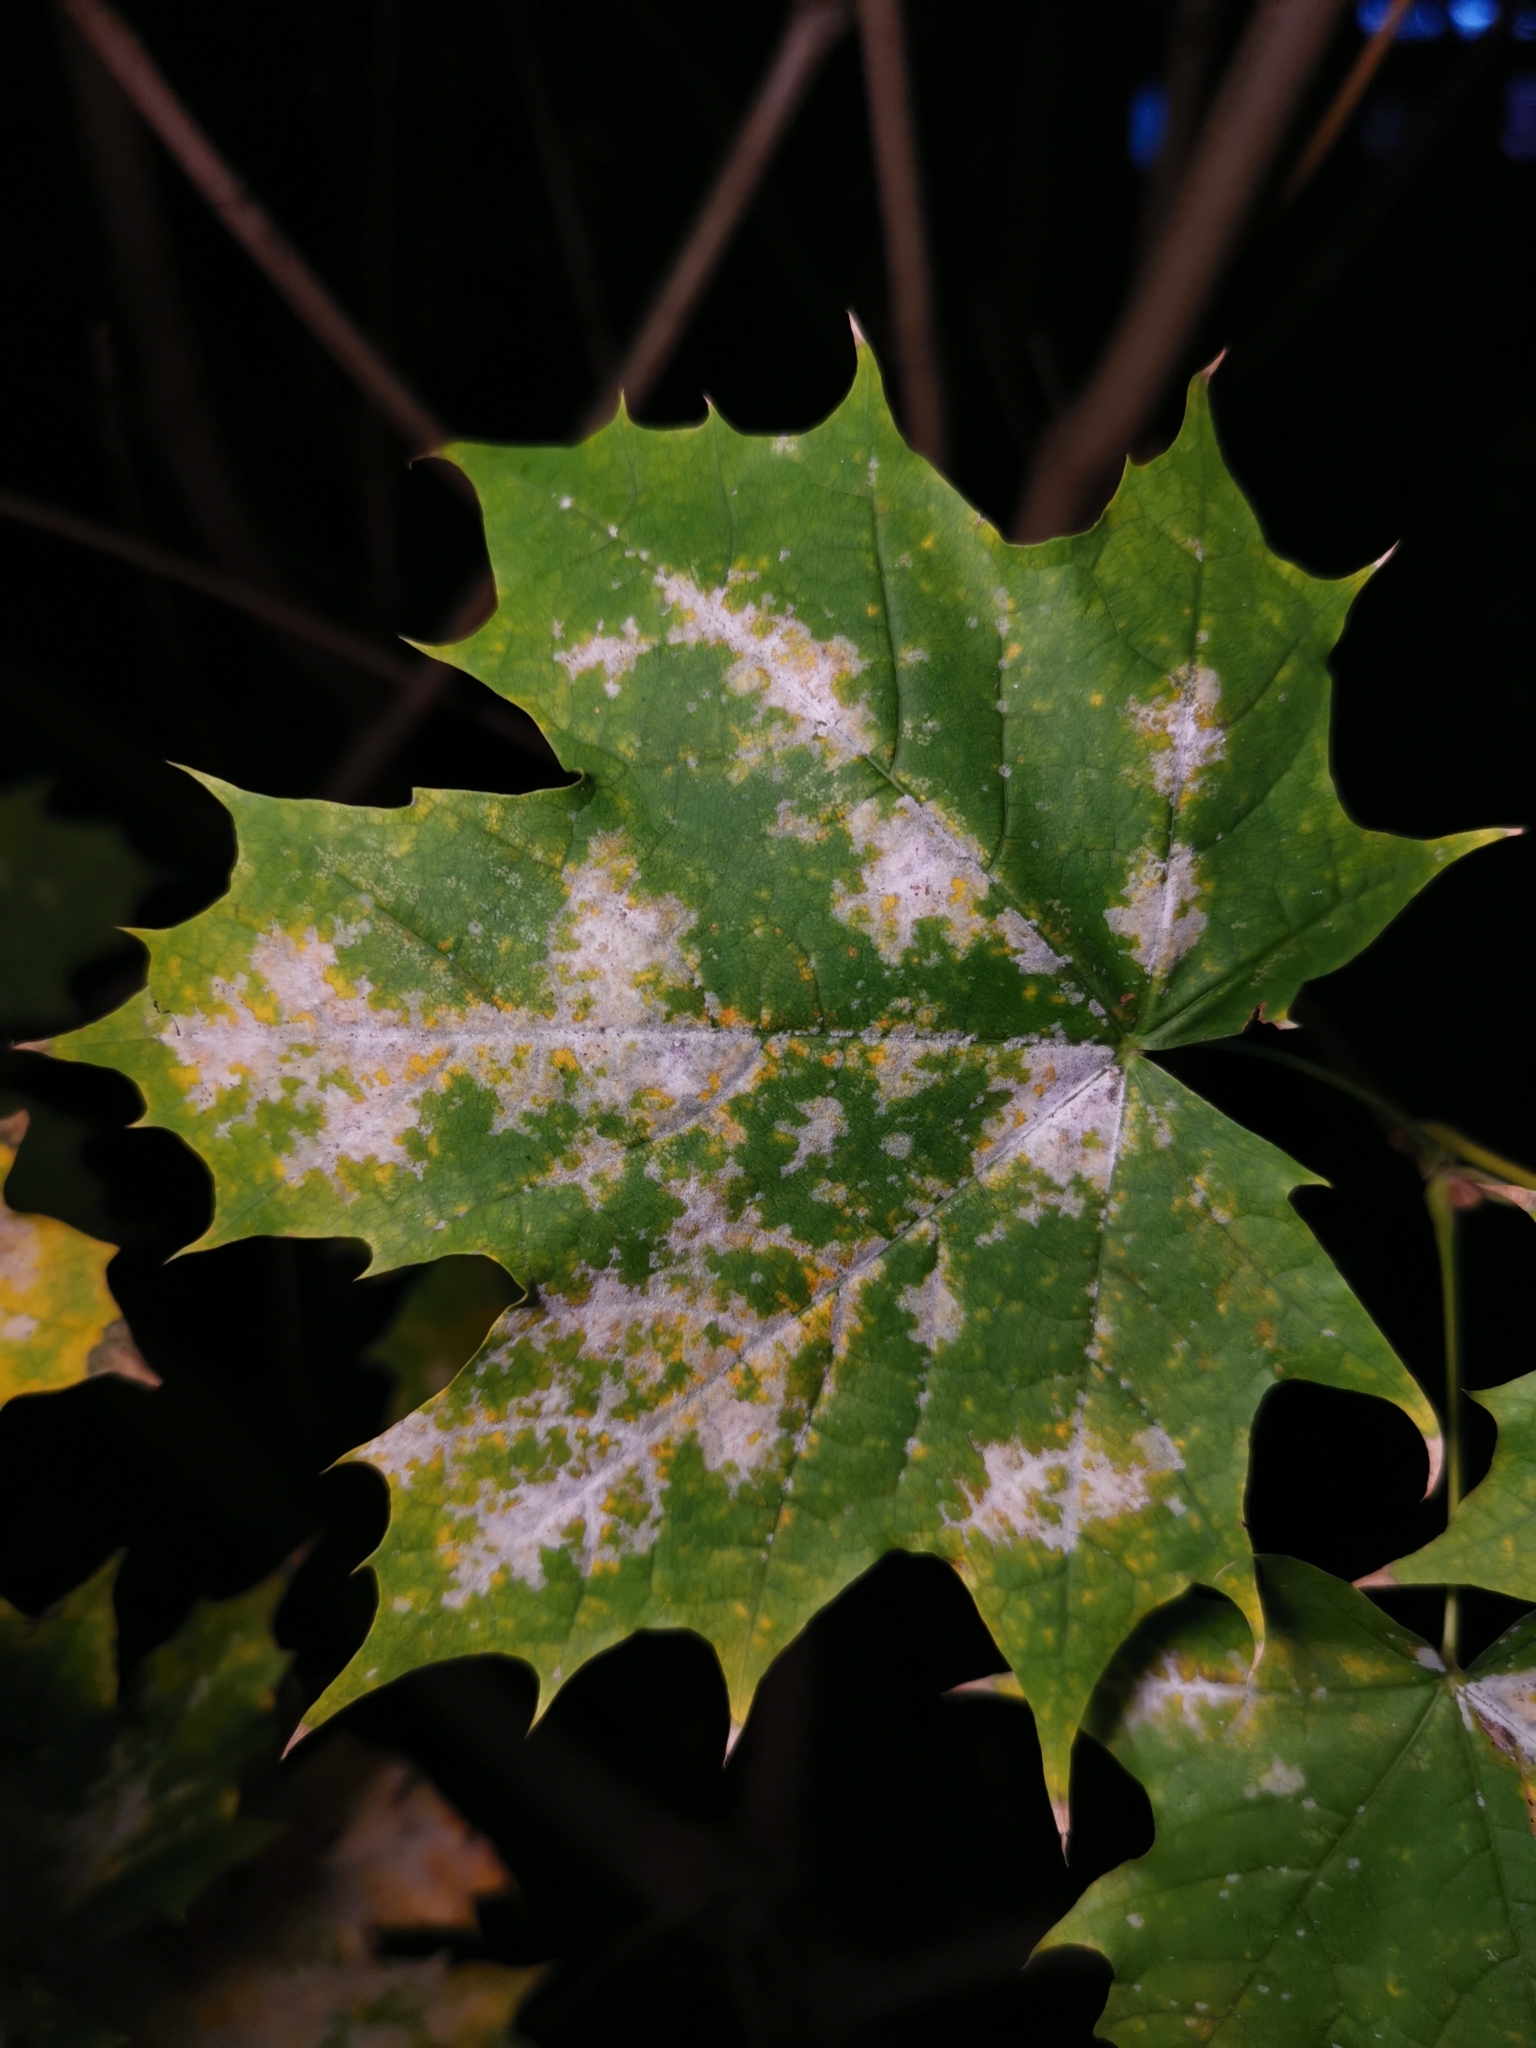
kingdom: Fungi
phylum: Ascomycota
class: Leotiomycetes
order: Helotiales
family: Erysiphaceae
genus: Sawadaea
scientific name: Sawadaea tulasnei
